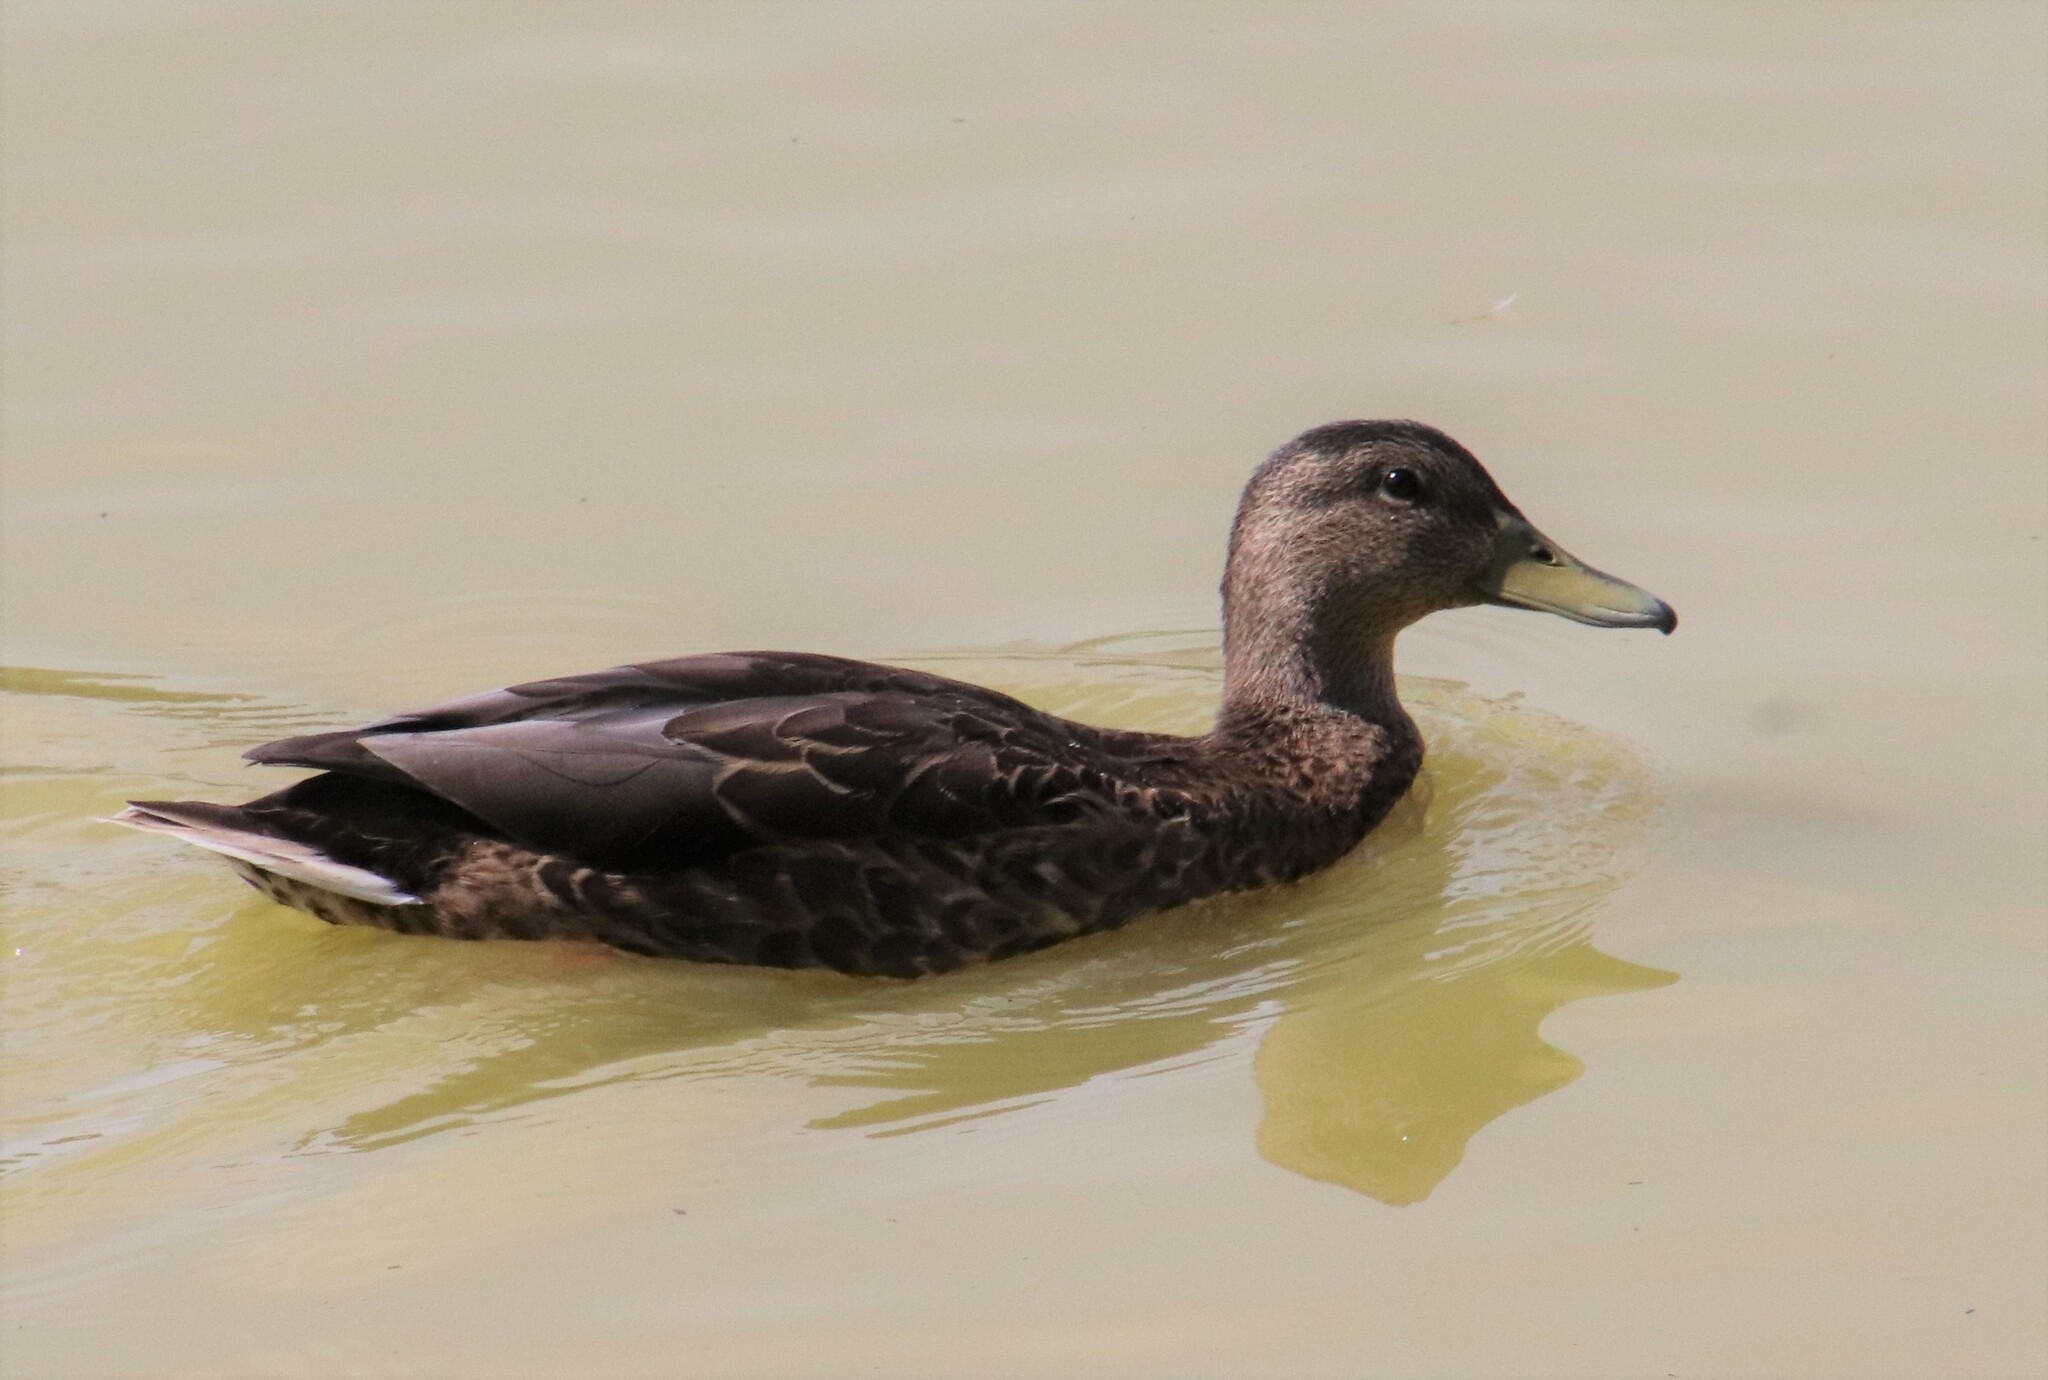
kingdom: Animalia
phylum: Chordata
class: Aves
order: Anseriformes
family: Anatidae
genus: Anas
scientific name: Anas platyrhynchos
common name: Mallard
